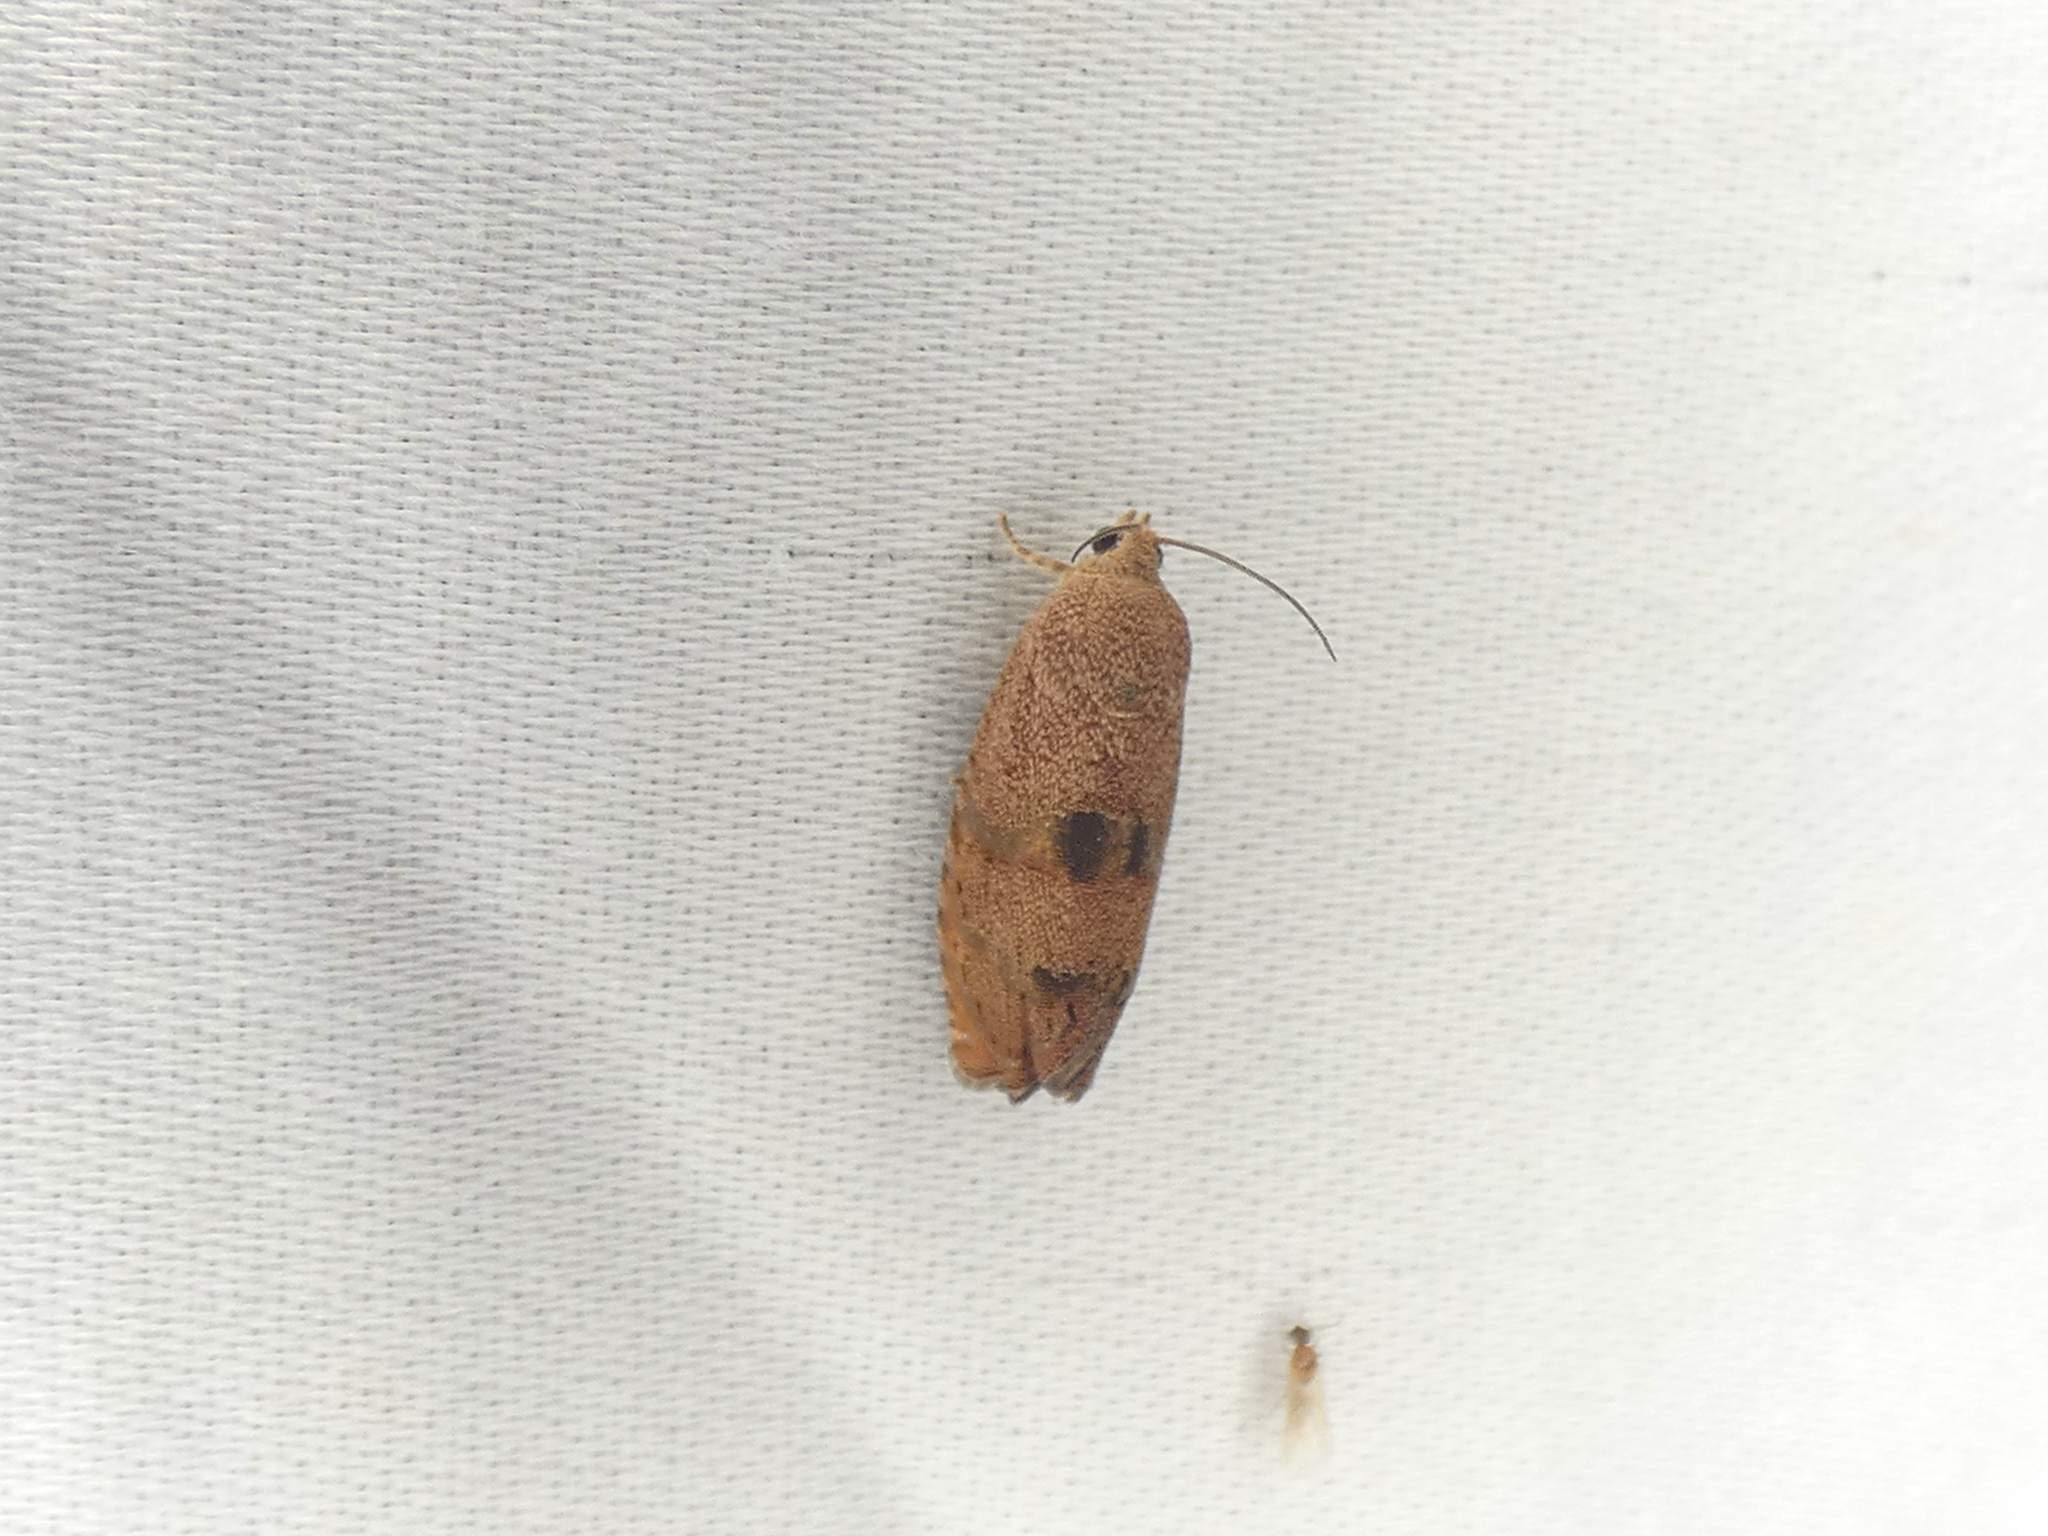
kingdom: Animalia
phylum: Arthropoda
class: Insecta
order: Lepidoptera
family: Tortricidae
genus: Cydia
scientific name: Cydia latiferreana
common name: Filbertworm moth
